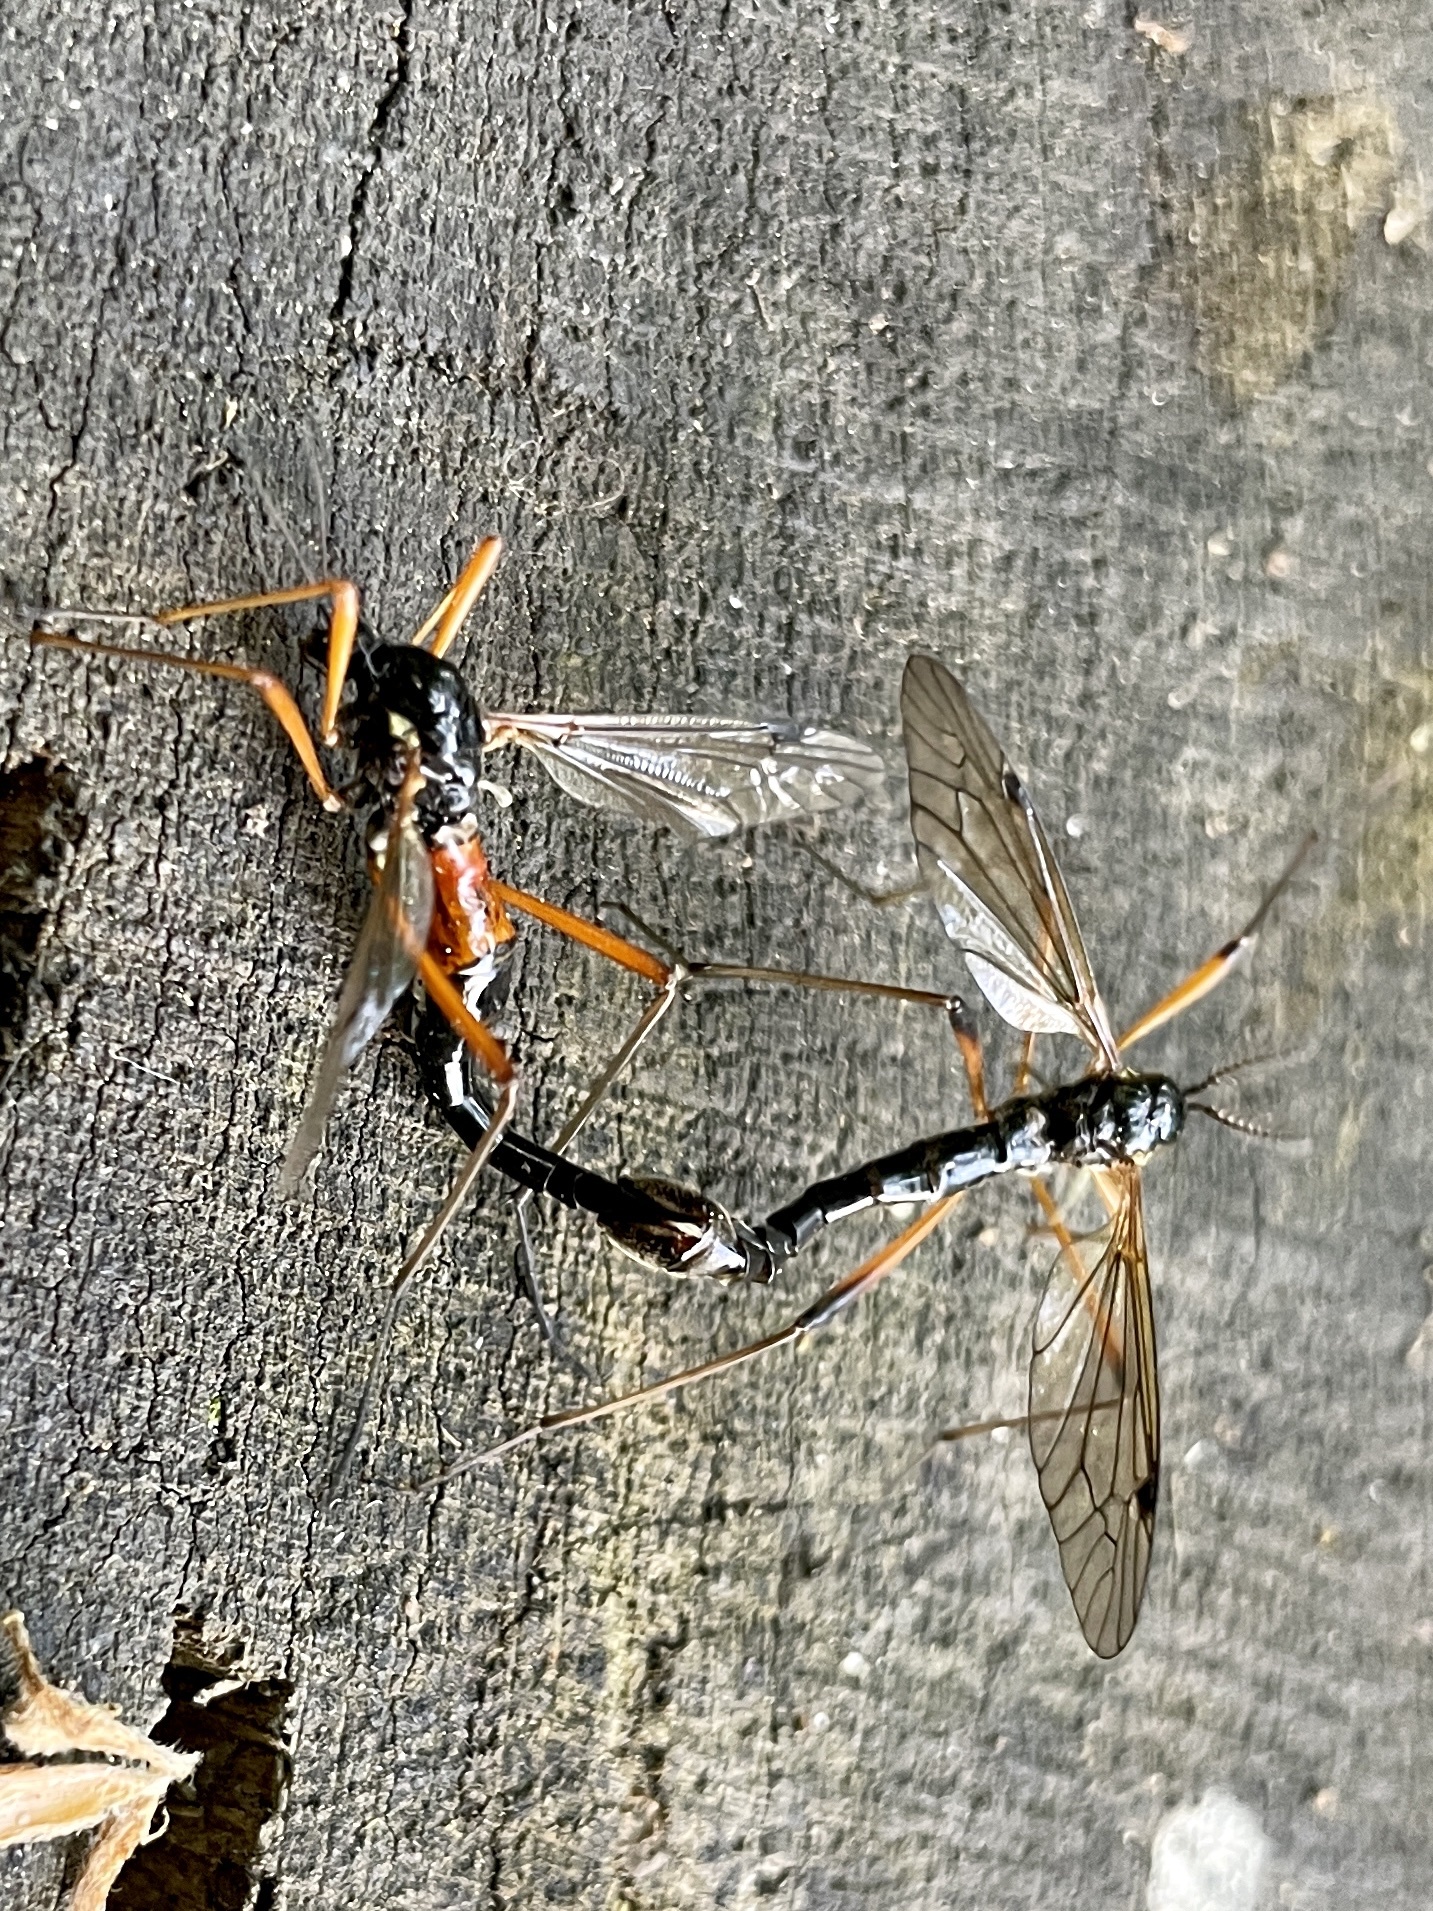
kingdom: Animalia
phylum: Arthropoda
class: Insecta
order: Diptera
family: Tipulidae
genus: Tanyptera
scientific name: Tanyptera atrata
